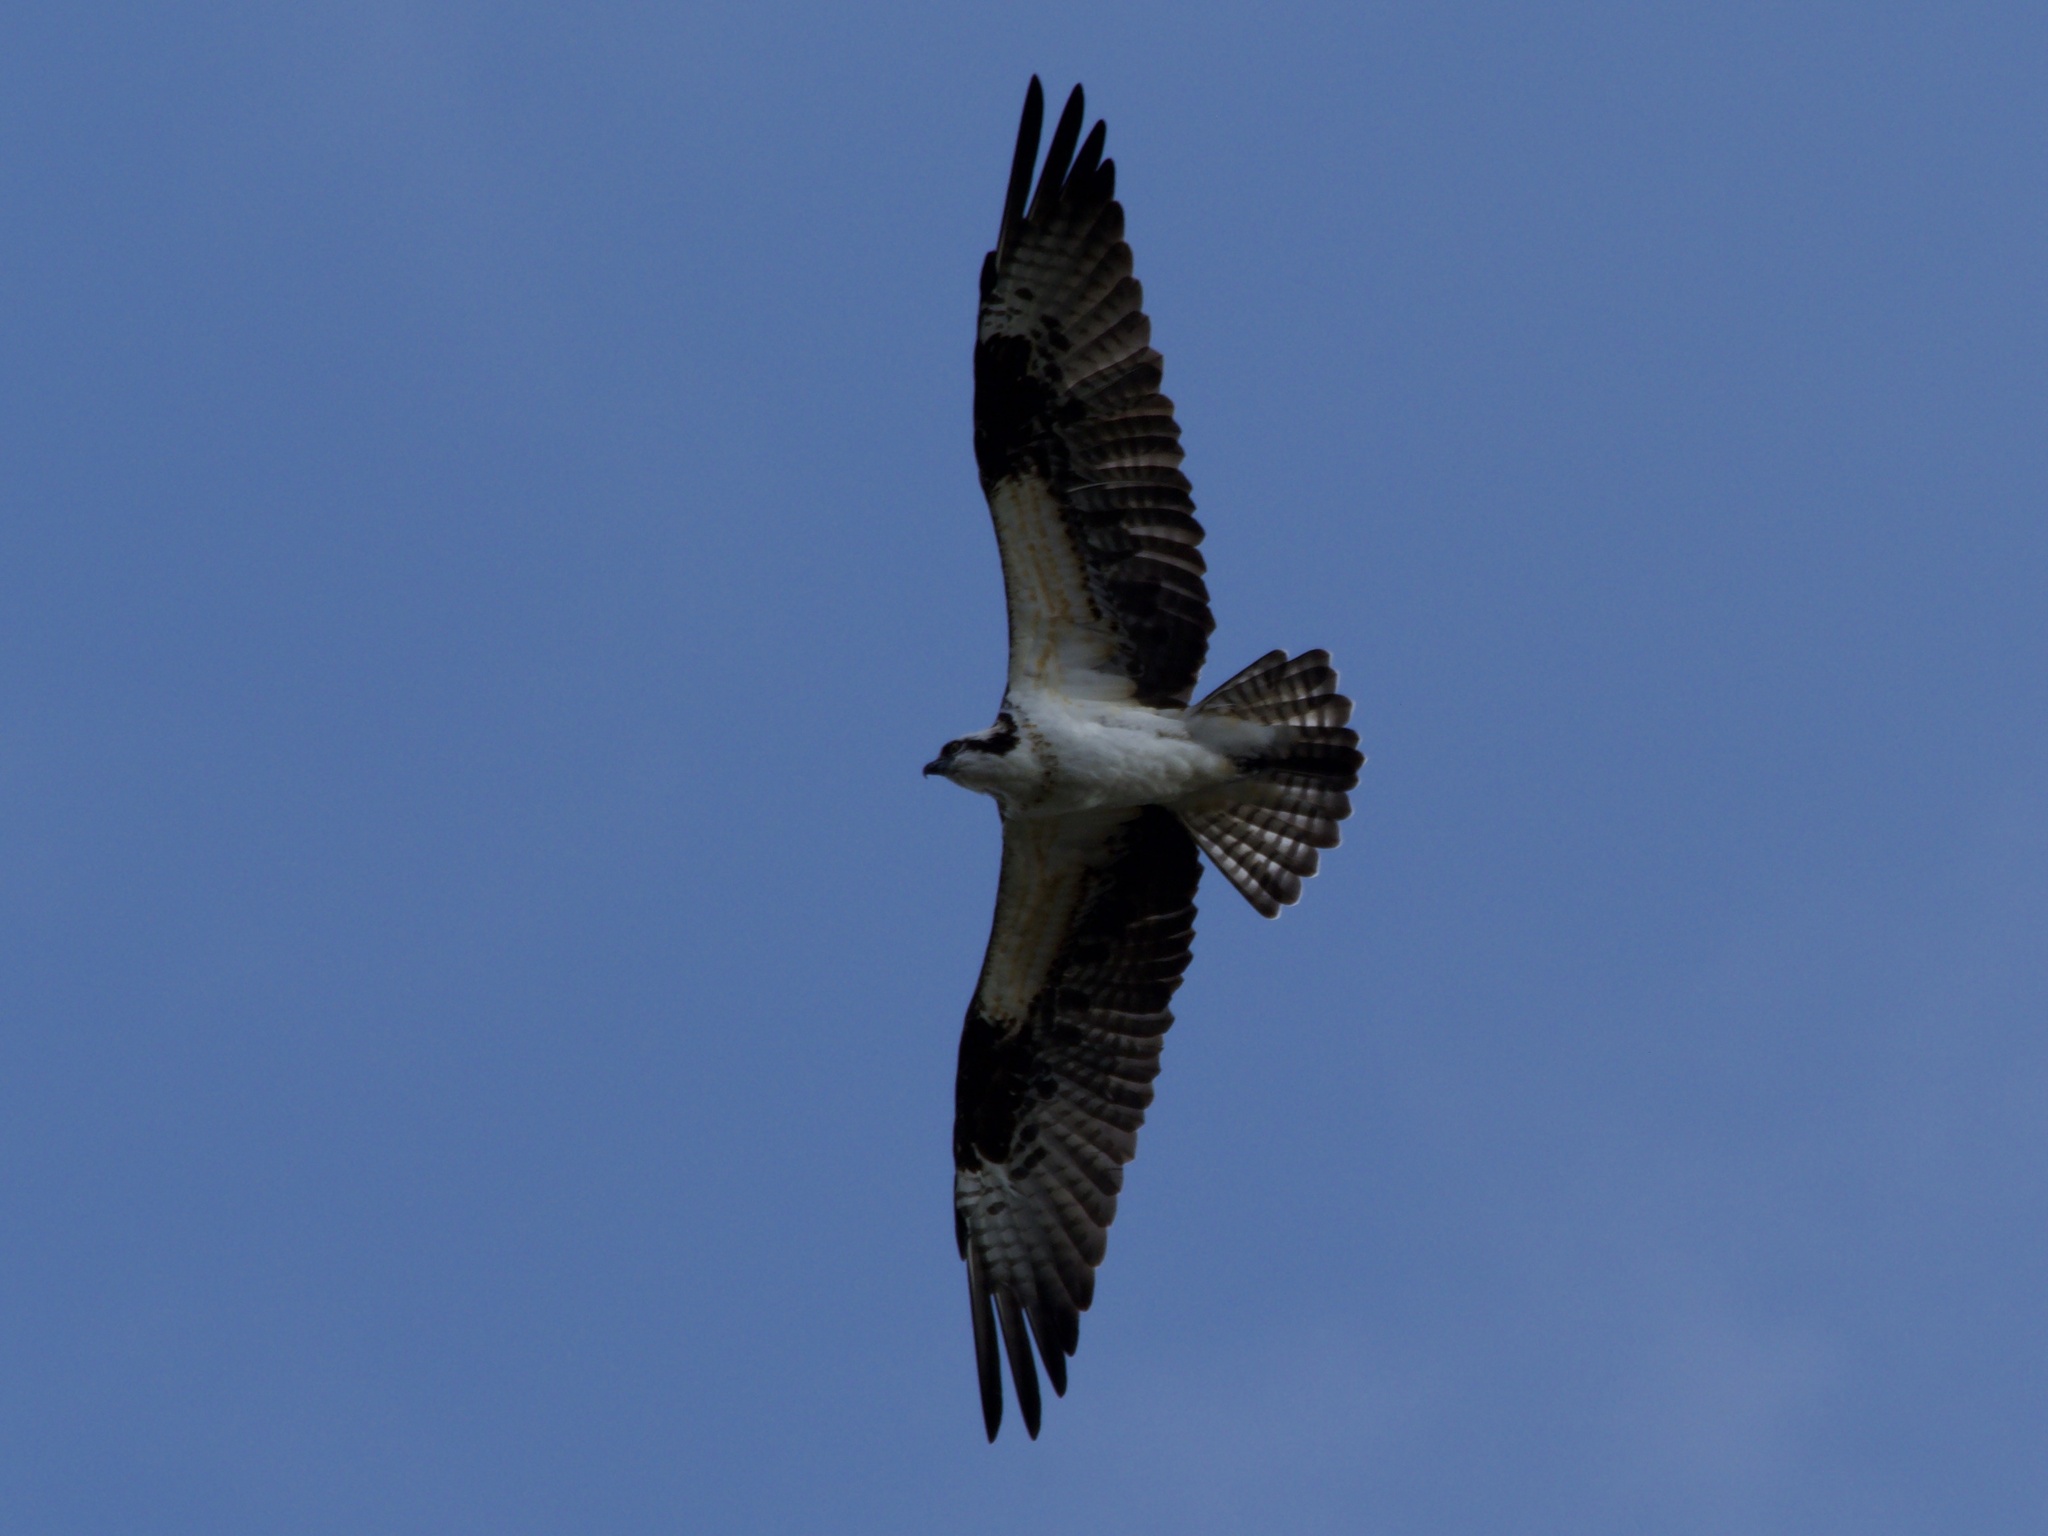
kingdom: Animalia
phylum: Chordata
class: Aves
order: Accipitriformes
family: Pandionidae
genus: Pandion
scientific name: Pandion haliaetus
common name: Osprey
